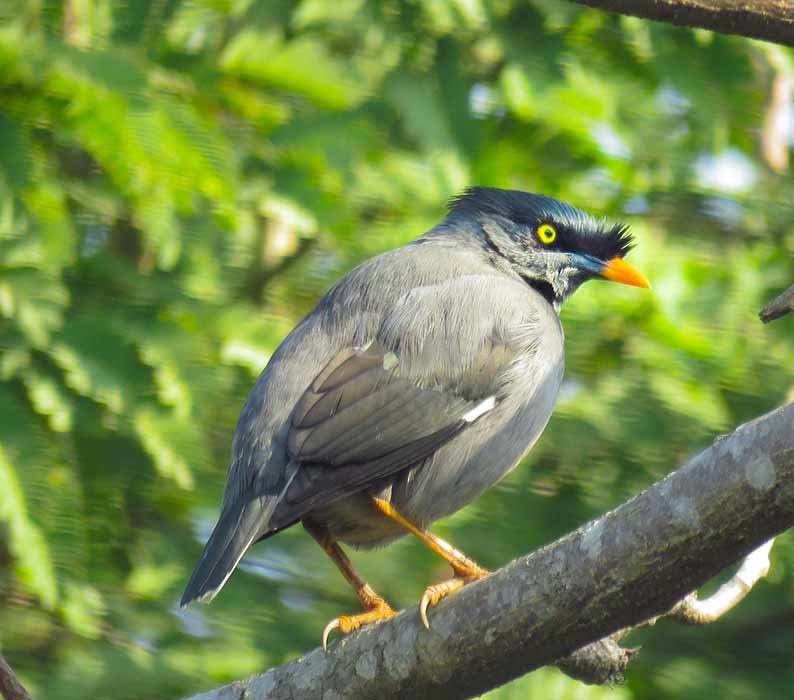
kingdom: Animalia
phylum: Chordata
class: Aves
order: Passeriformes
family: Sturnidae
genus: Acridotheres
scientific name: Acridotheres fuscus
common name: Jungle myna
